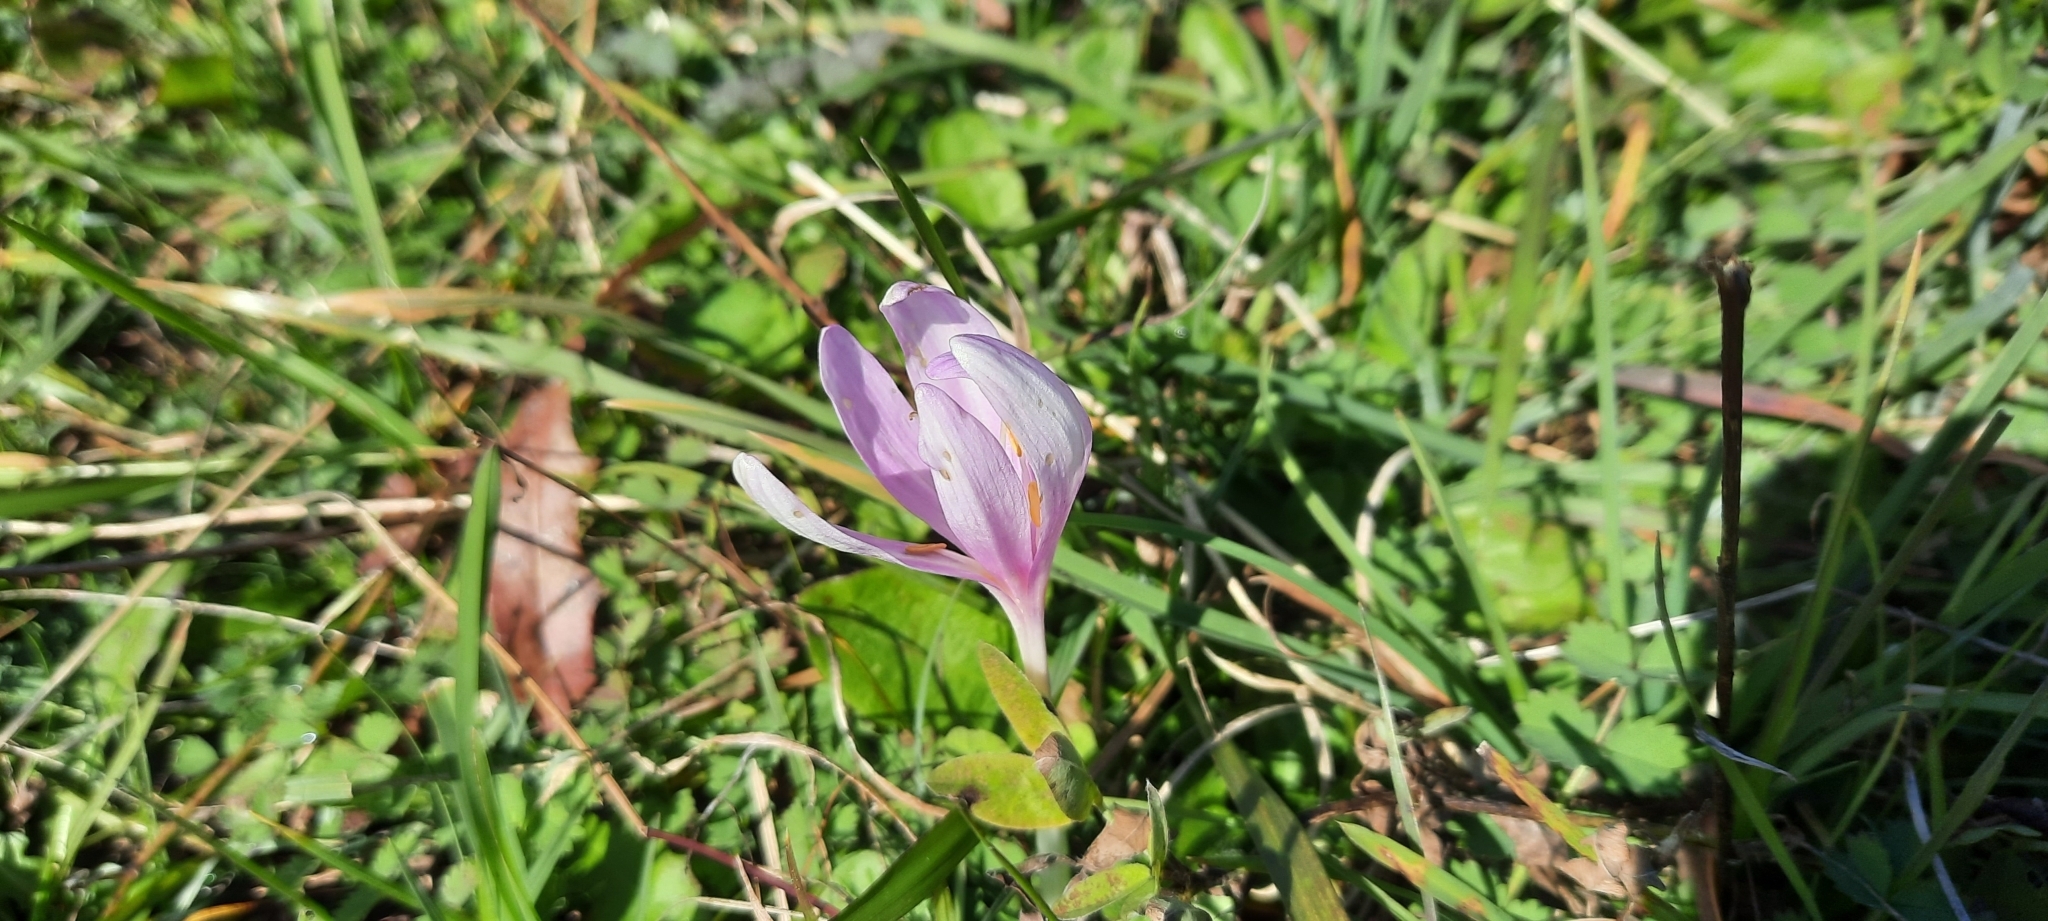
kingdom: Plantae
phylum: Tracheophyta
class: Liliopsida
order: Liliales
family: Colchicaceae
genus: Colchicum
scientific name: Colchicum autumnale
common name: Autumn crocus
